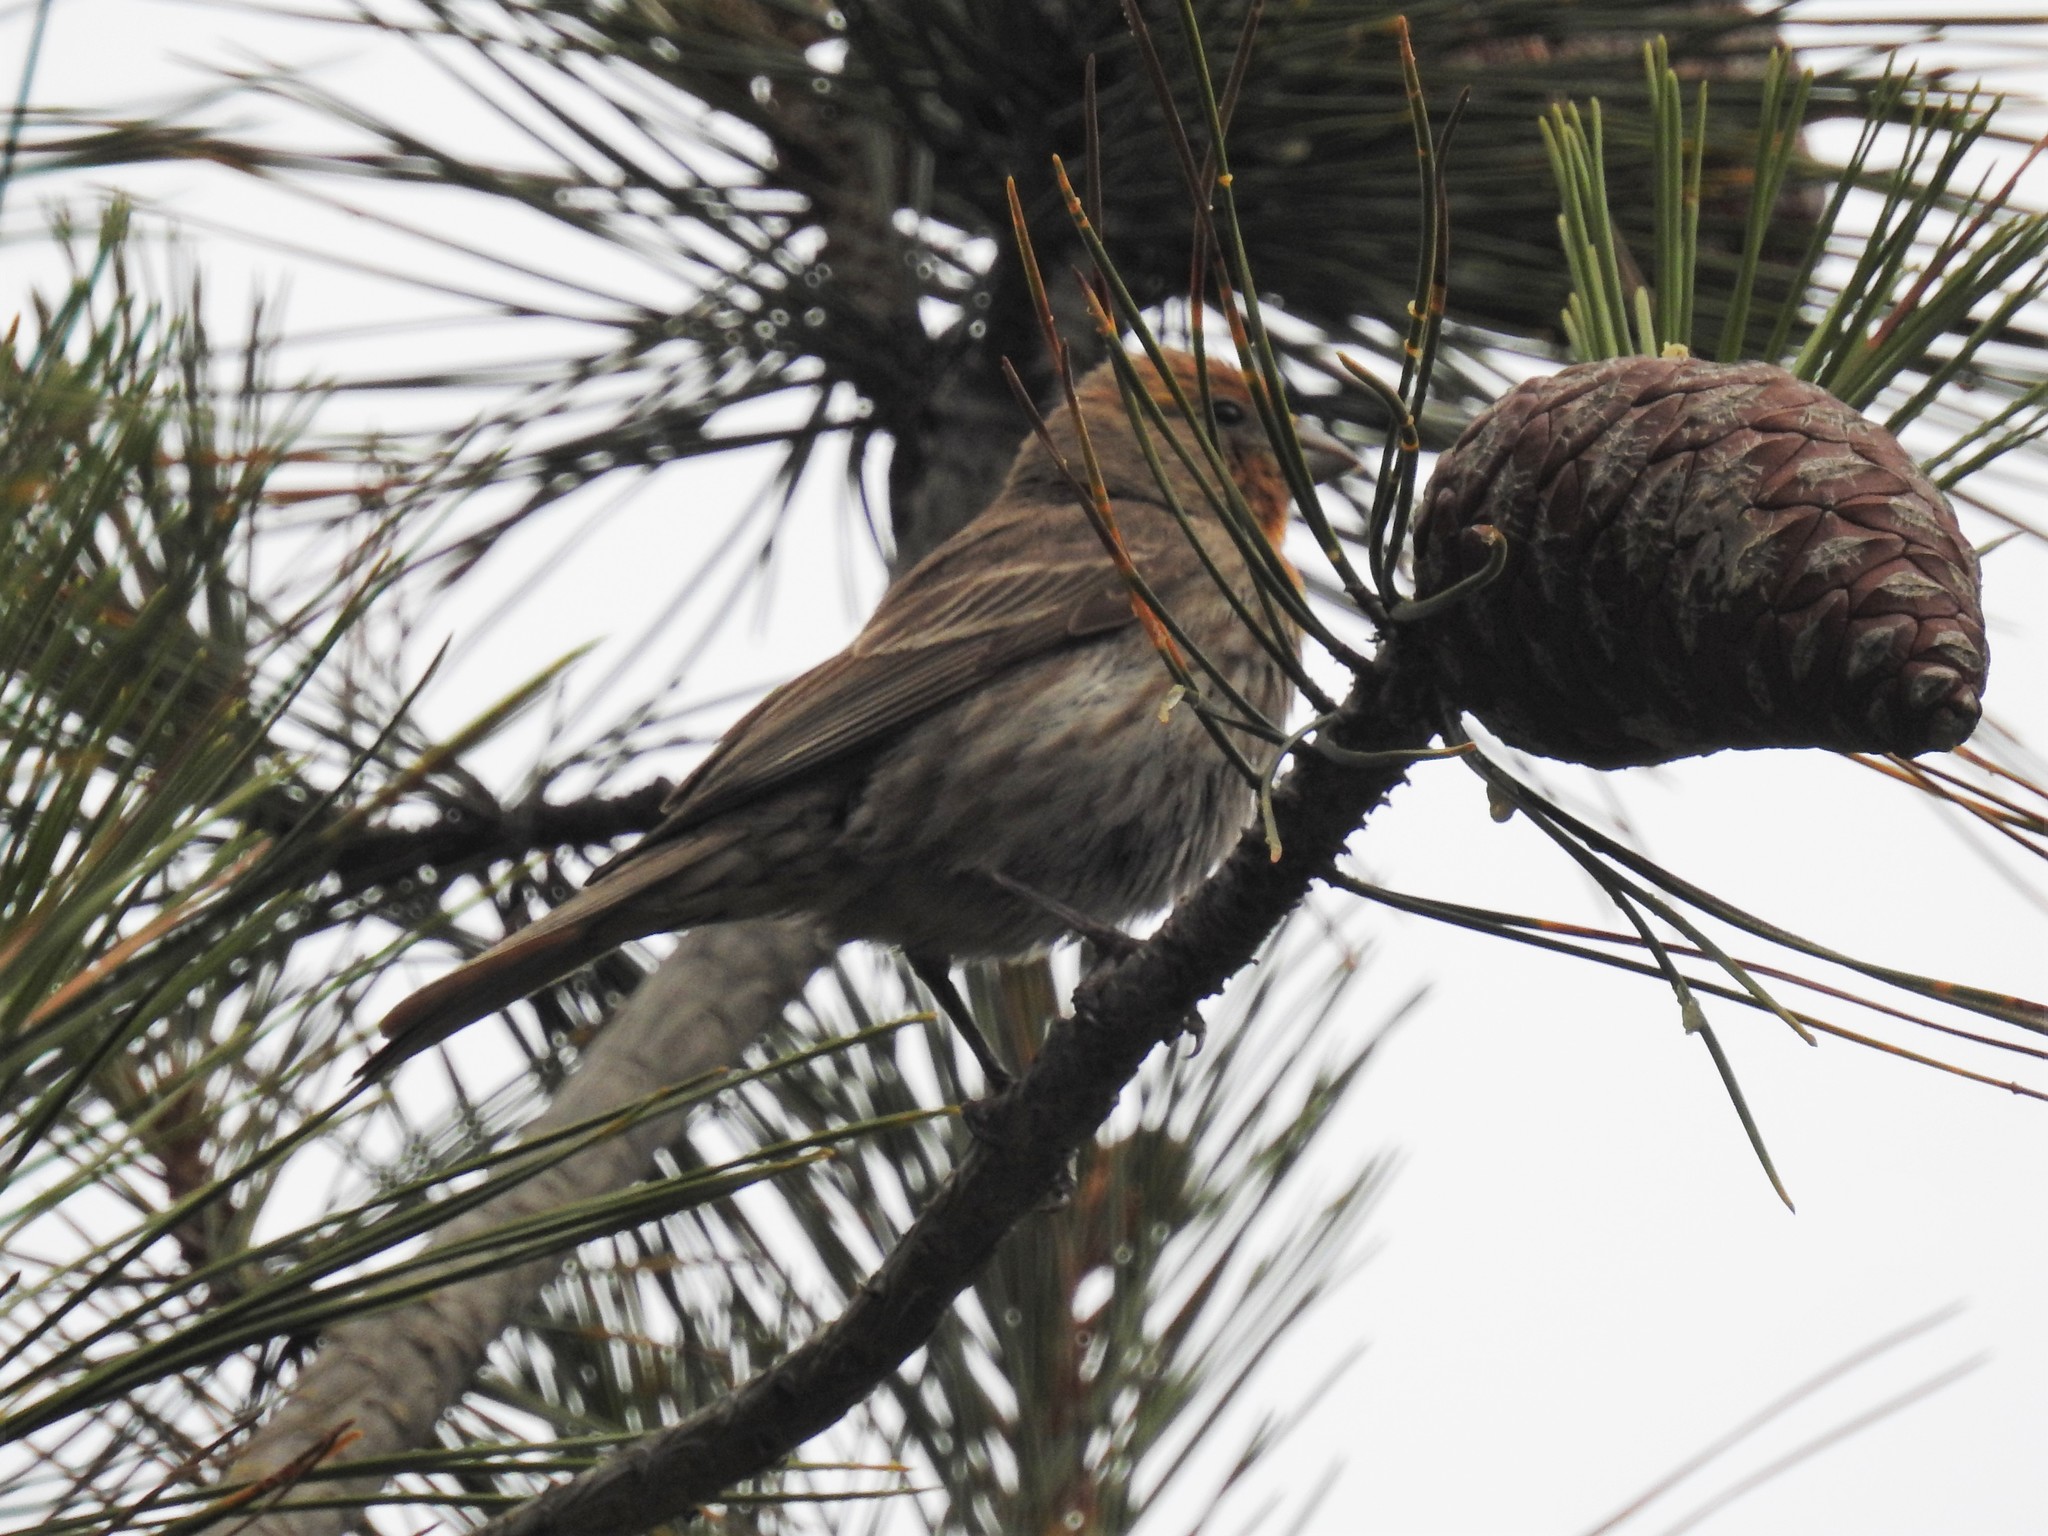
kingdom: Animalia
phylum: Chordata
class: Aves
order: Passeriformes
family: Fringillidae
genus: Haemorhous
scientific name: Haemorhous mexicanus
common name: House finch
